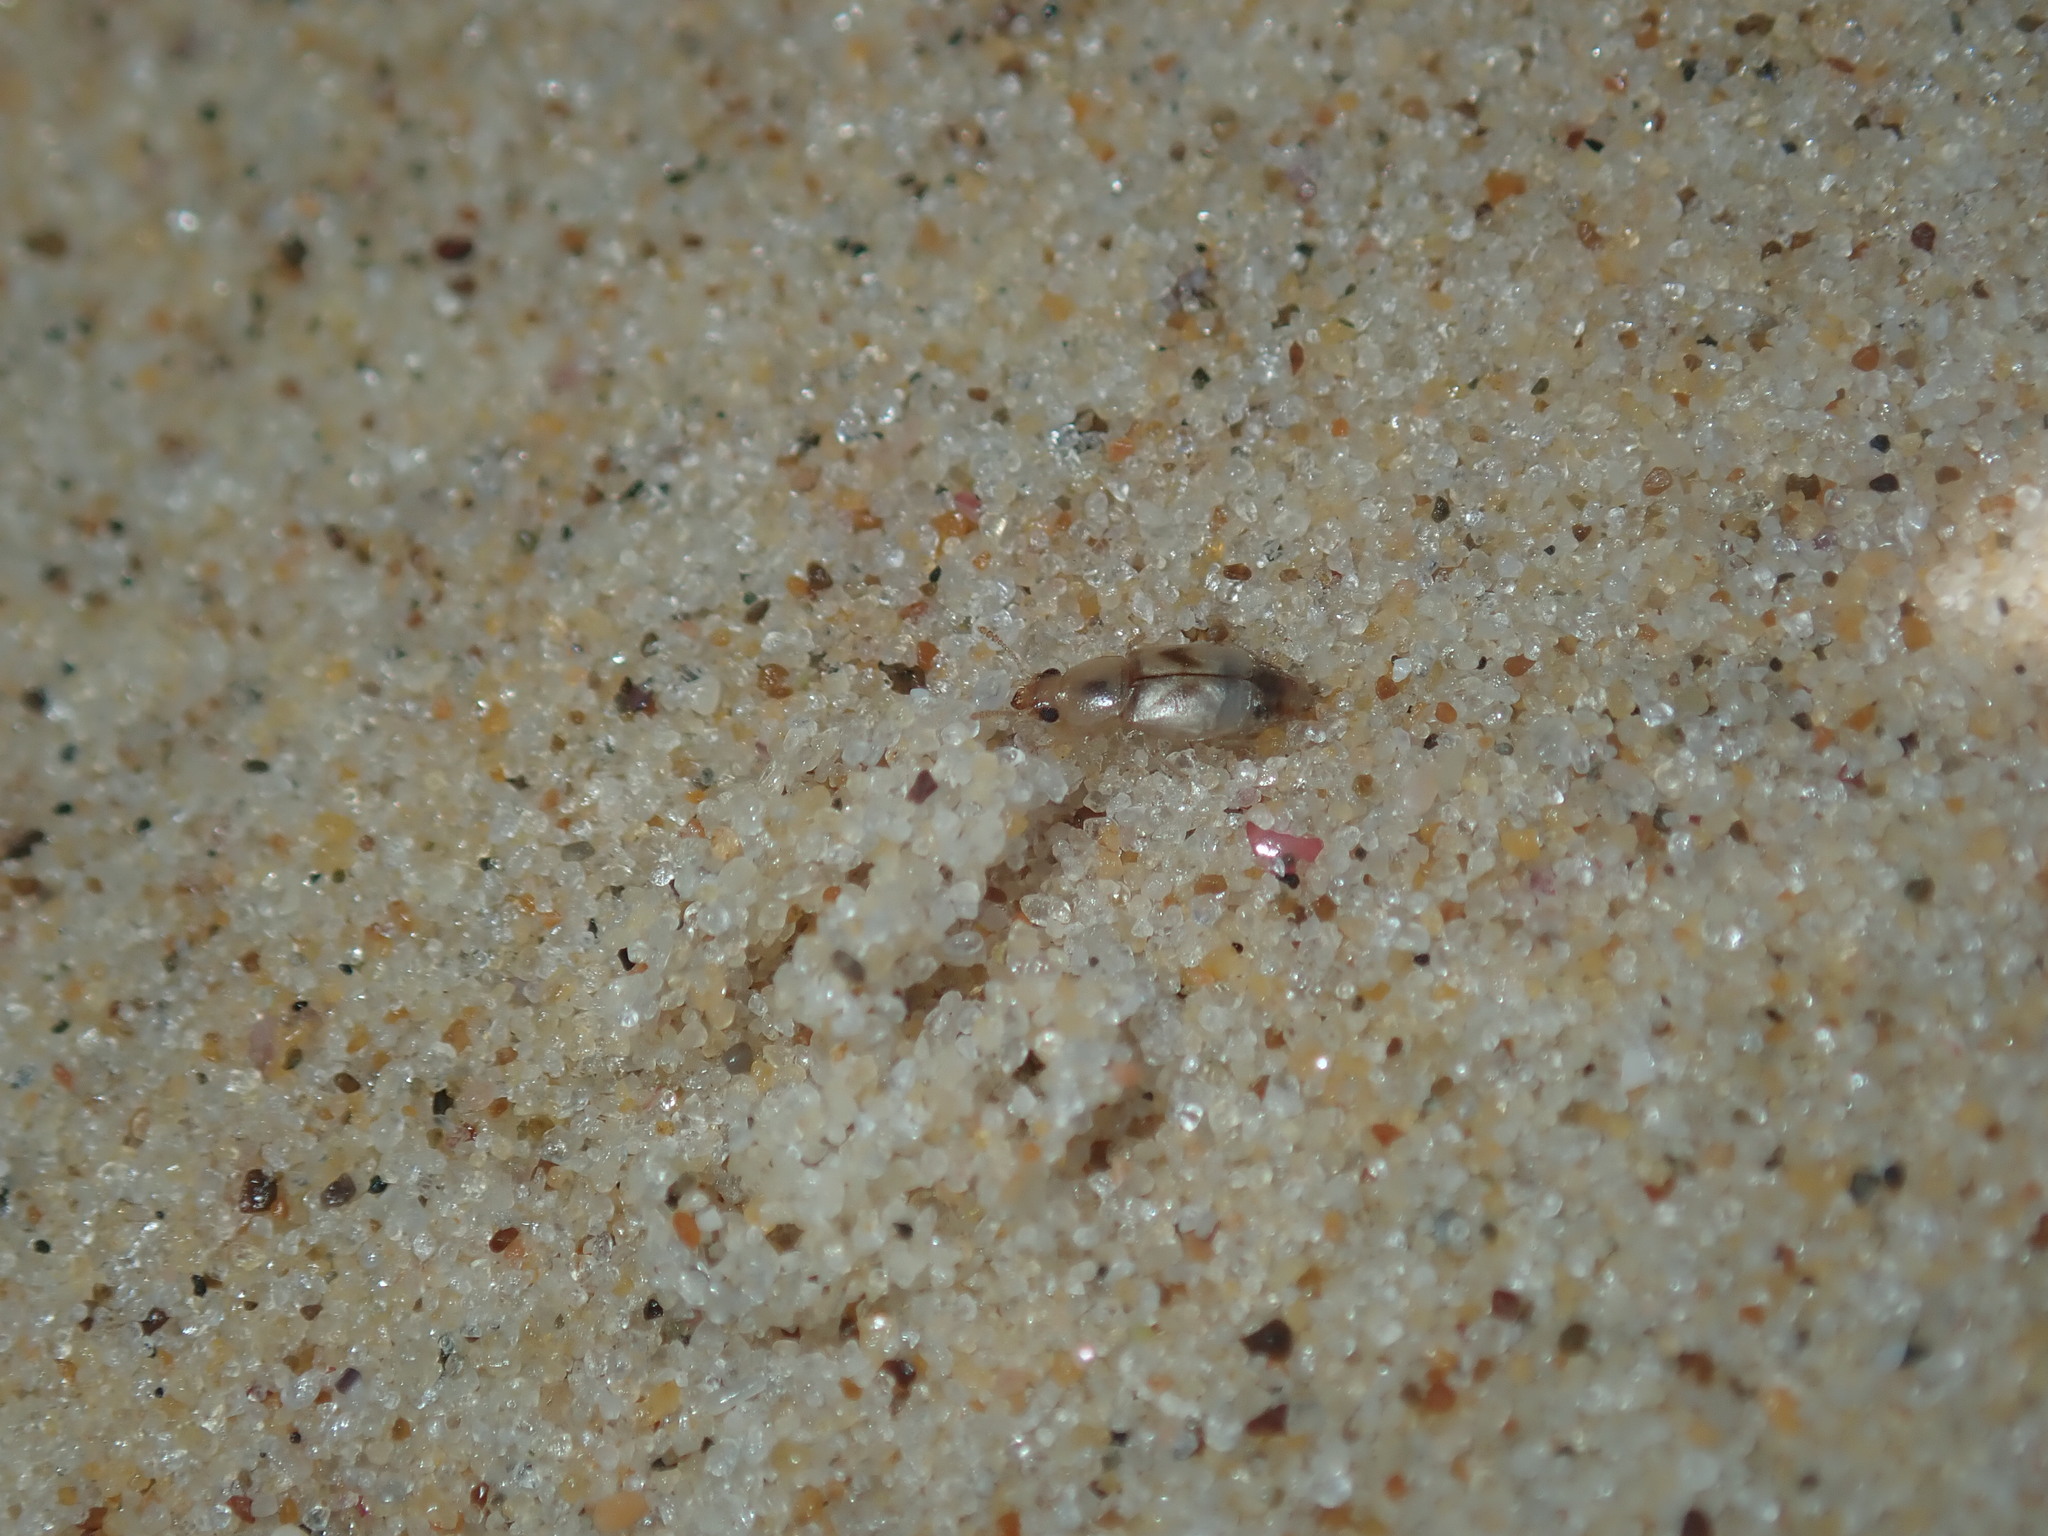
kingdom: Animalia
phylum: Arthropoda
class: Insecta
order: Coleoptera
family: Staphylinidae
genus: Sartallus
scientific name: Sartallus signatus
